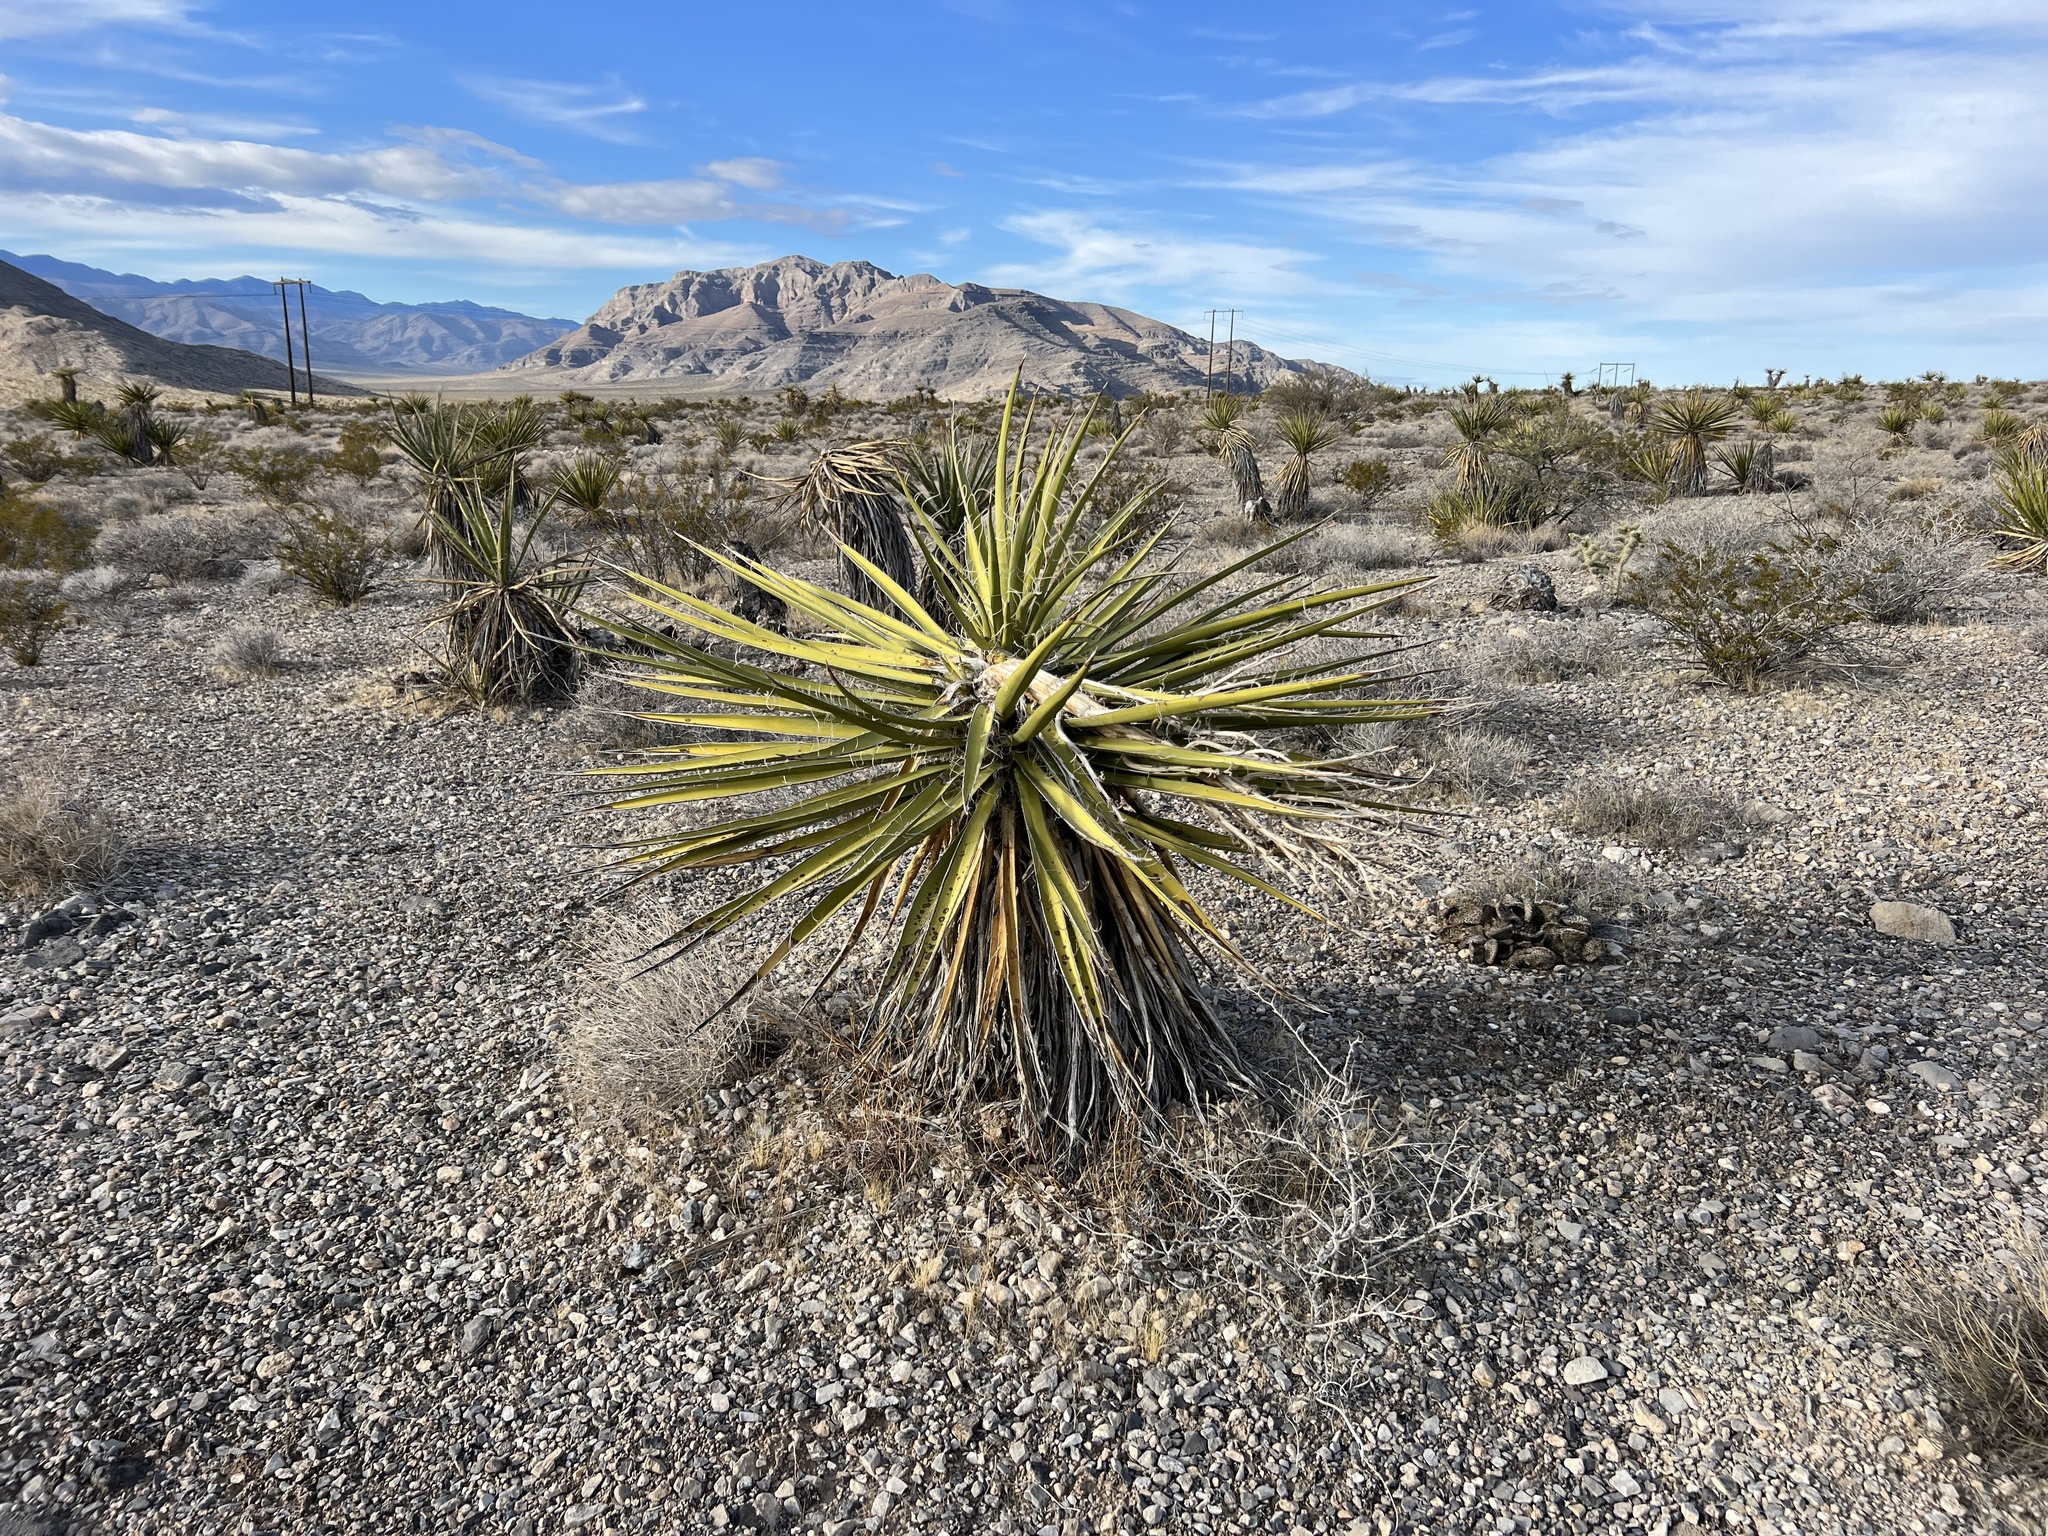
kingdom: Plantae
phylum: Tracheophyta
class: Liliopsida
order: Asparagales
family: Asparagaceae
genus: Yucca
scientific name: Yucca schidigera
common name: Mojave yucca
